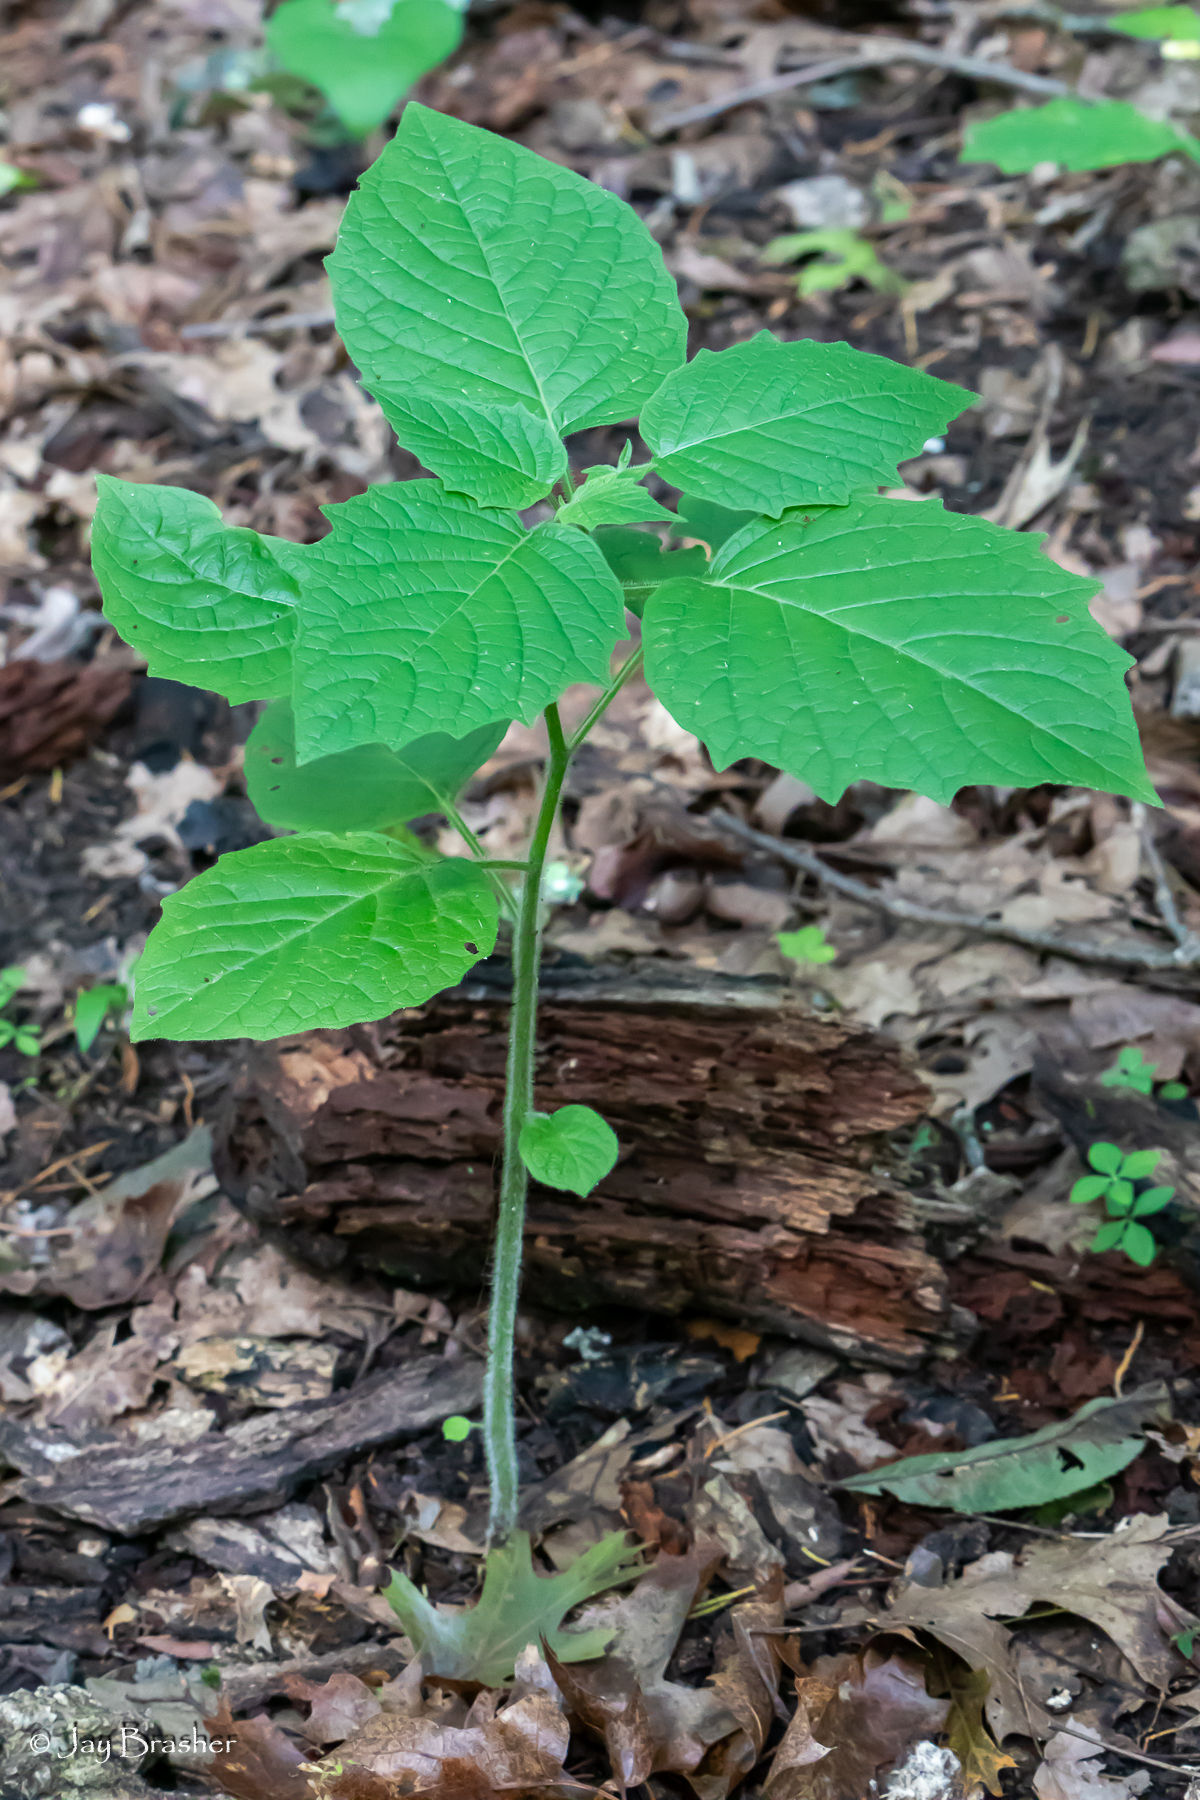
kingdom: Plantae
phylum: Tracheophyta
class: Magnoliopsida
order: Solanales
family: Solanaceae
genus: Physalis
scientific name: Physalis heterophylla
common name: Clammy ground-cherry
